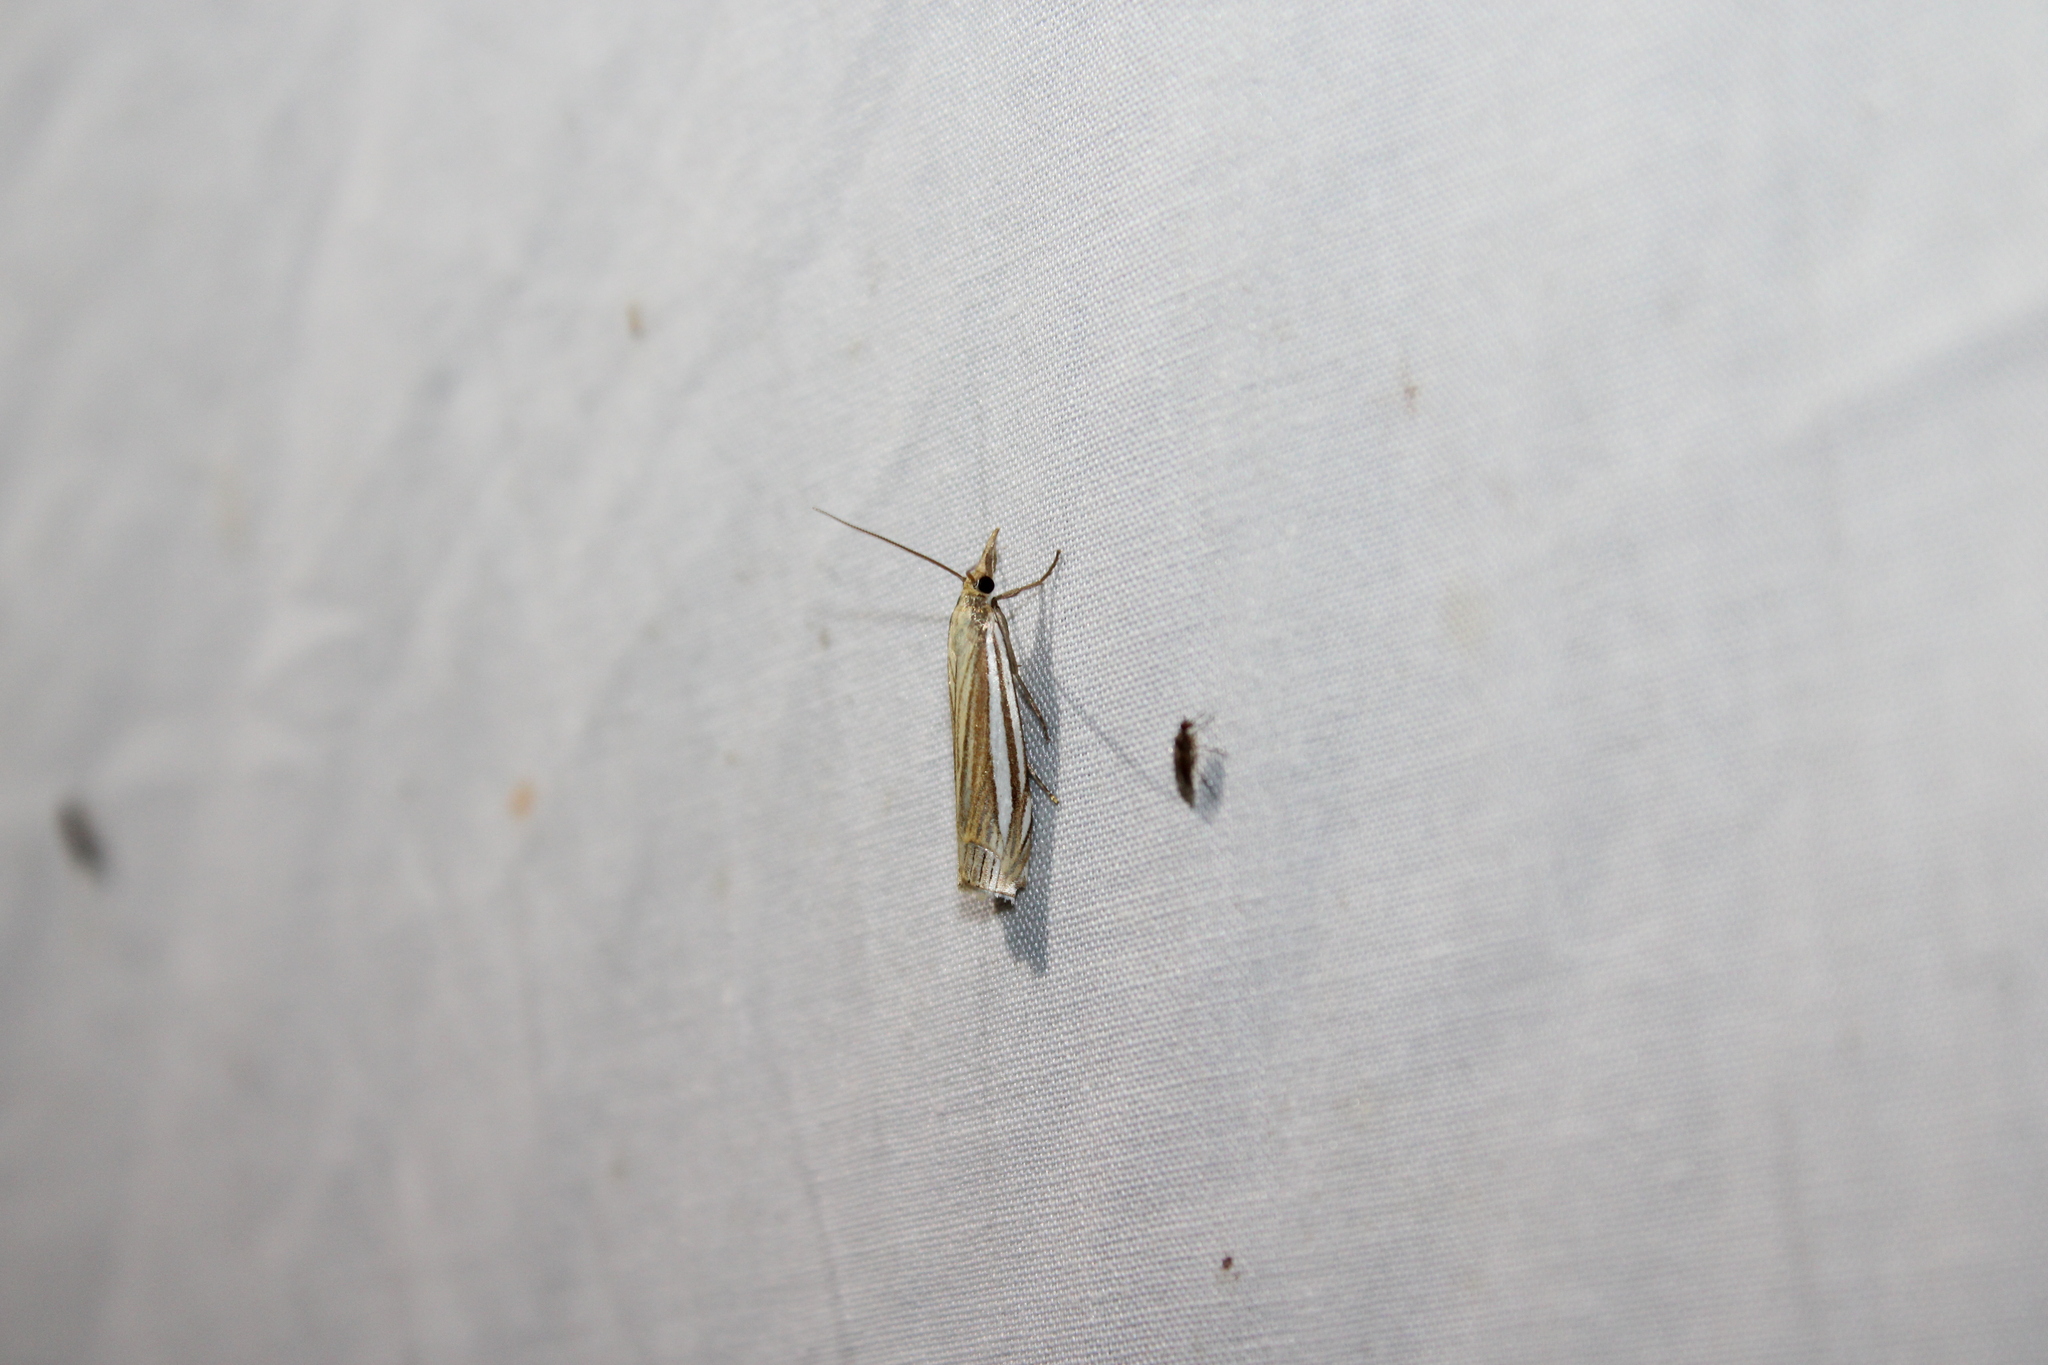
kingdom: Animalia
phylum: Arthropoda
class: Insecta
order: Lepidoptera
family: Crambidae
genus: Crambus
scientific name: Crambus laqueatellus
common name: Eastern grass-veneer
